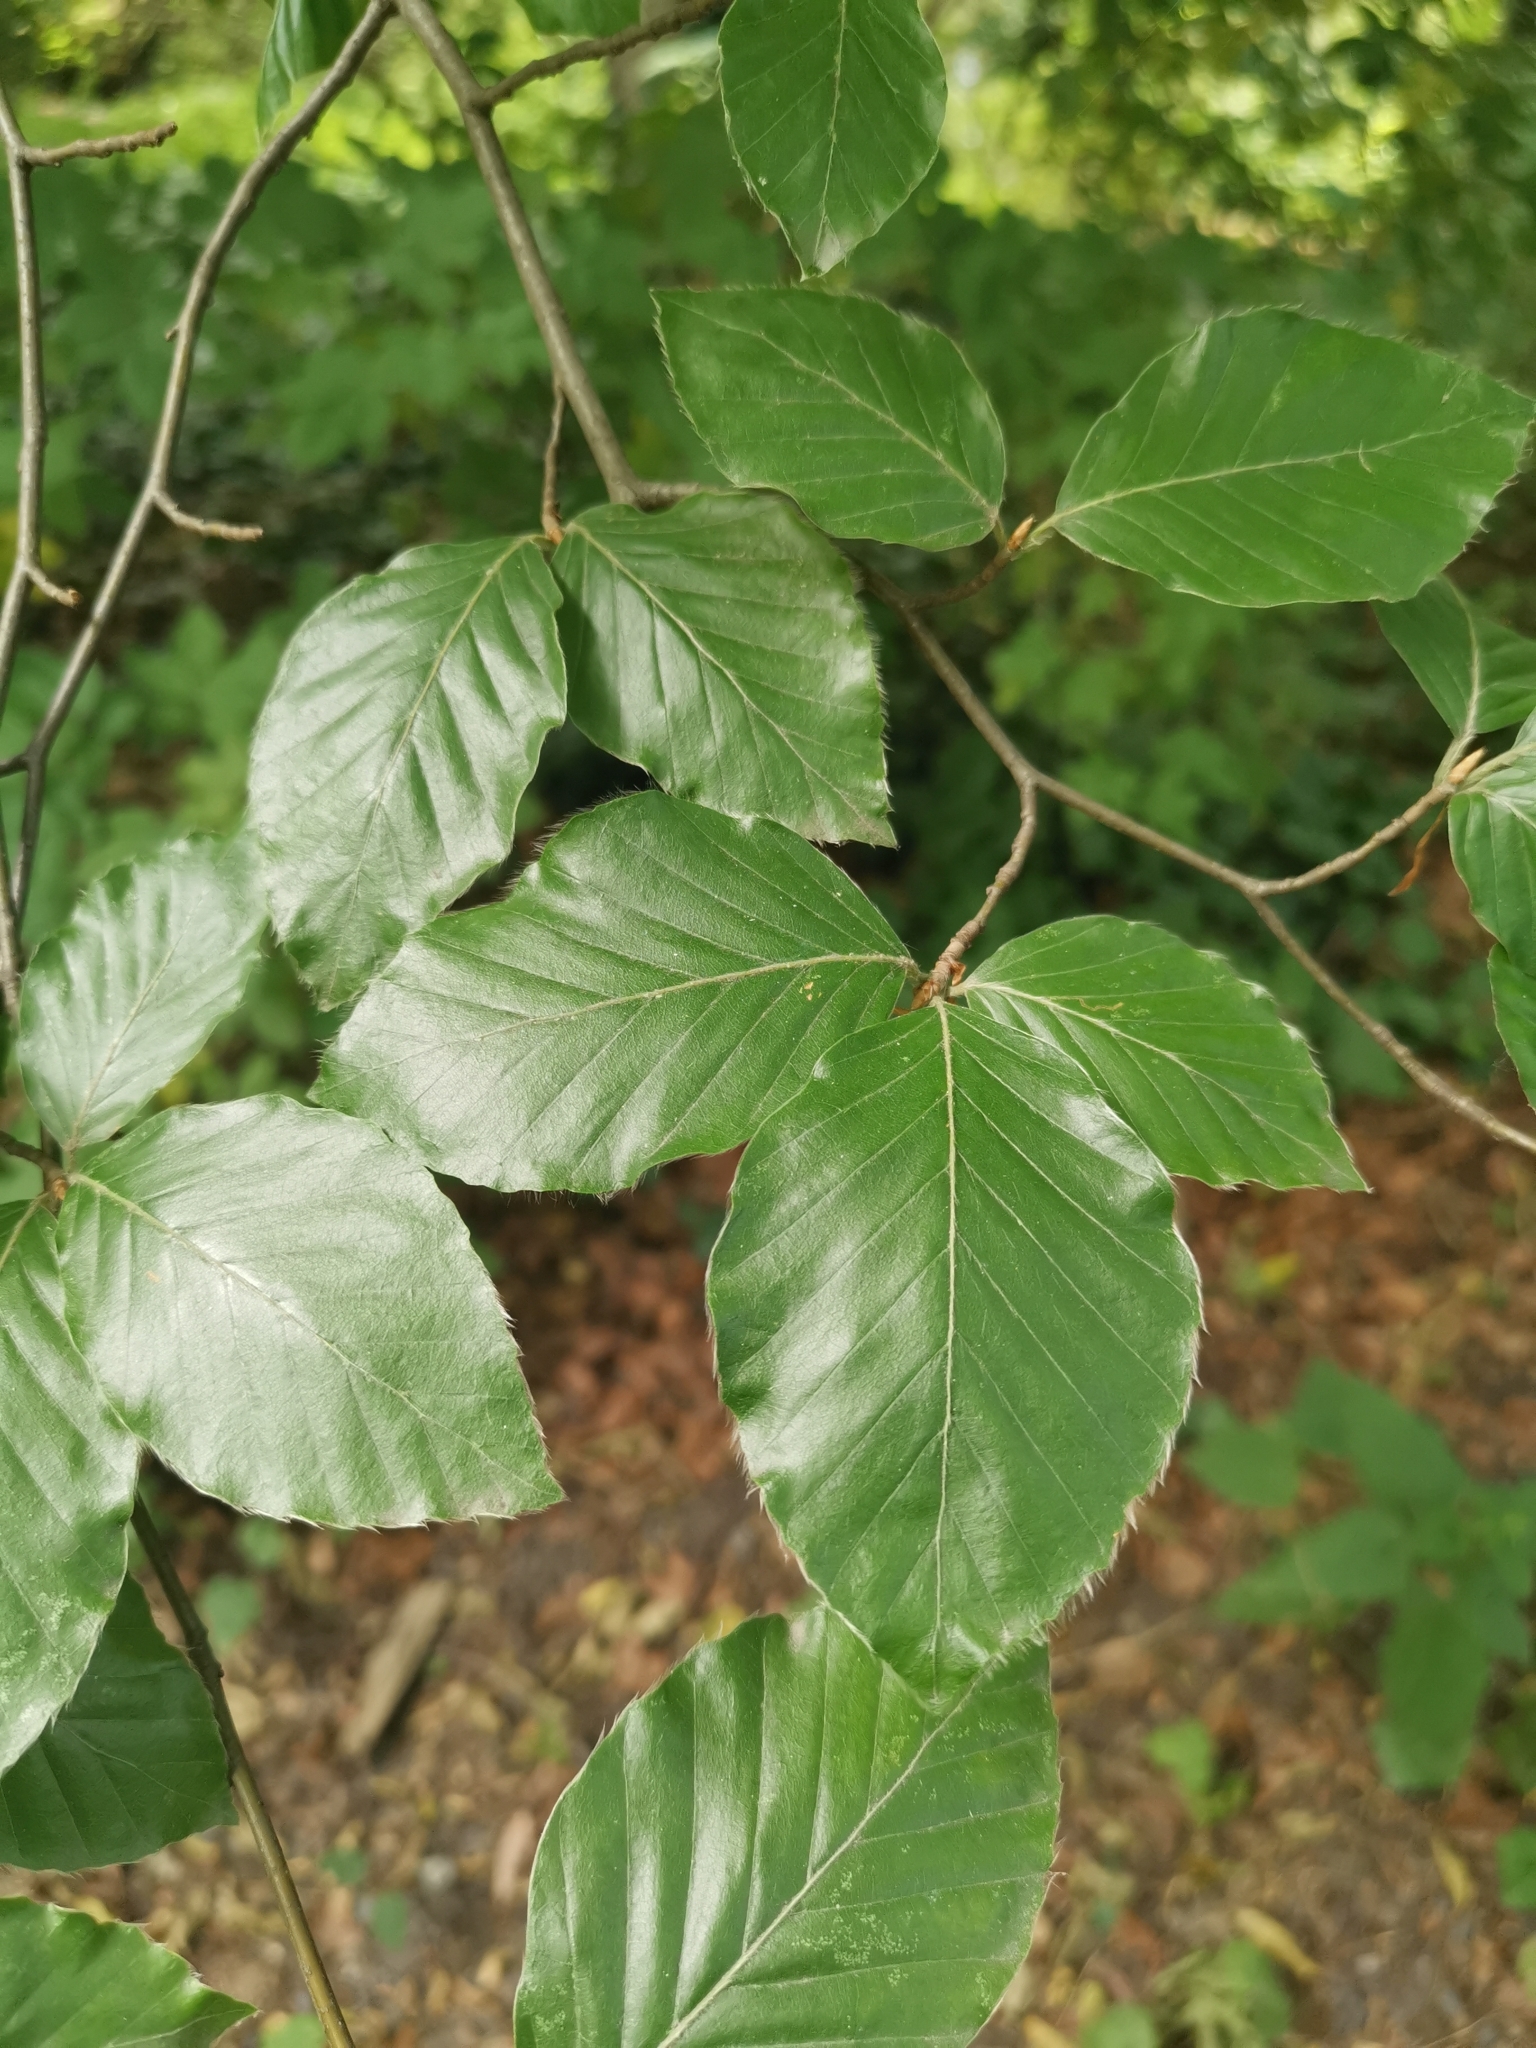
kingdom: Plantae
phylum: Tracheophyta
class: Magnoliopsida
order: Fagales
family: Fagaceae
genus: Fagus
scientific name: Fagus sylvatica
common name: Beech
